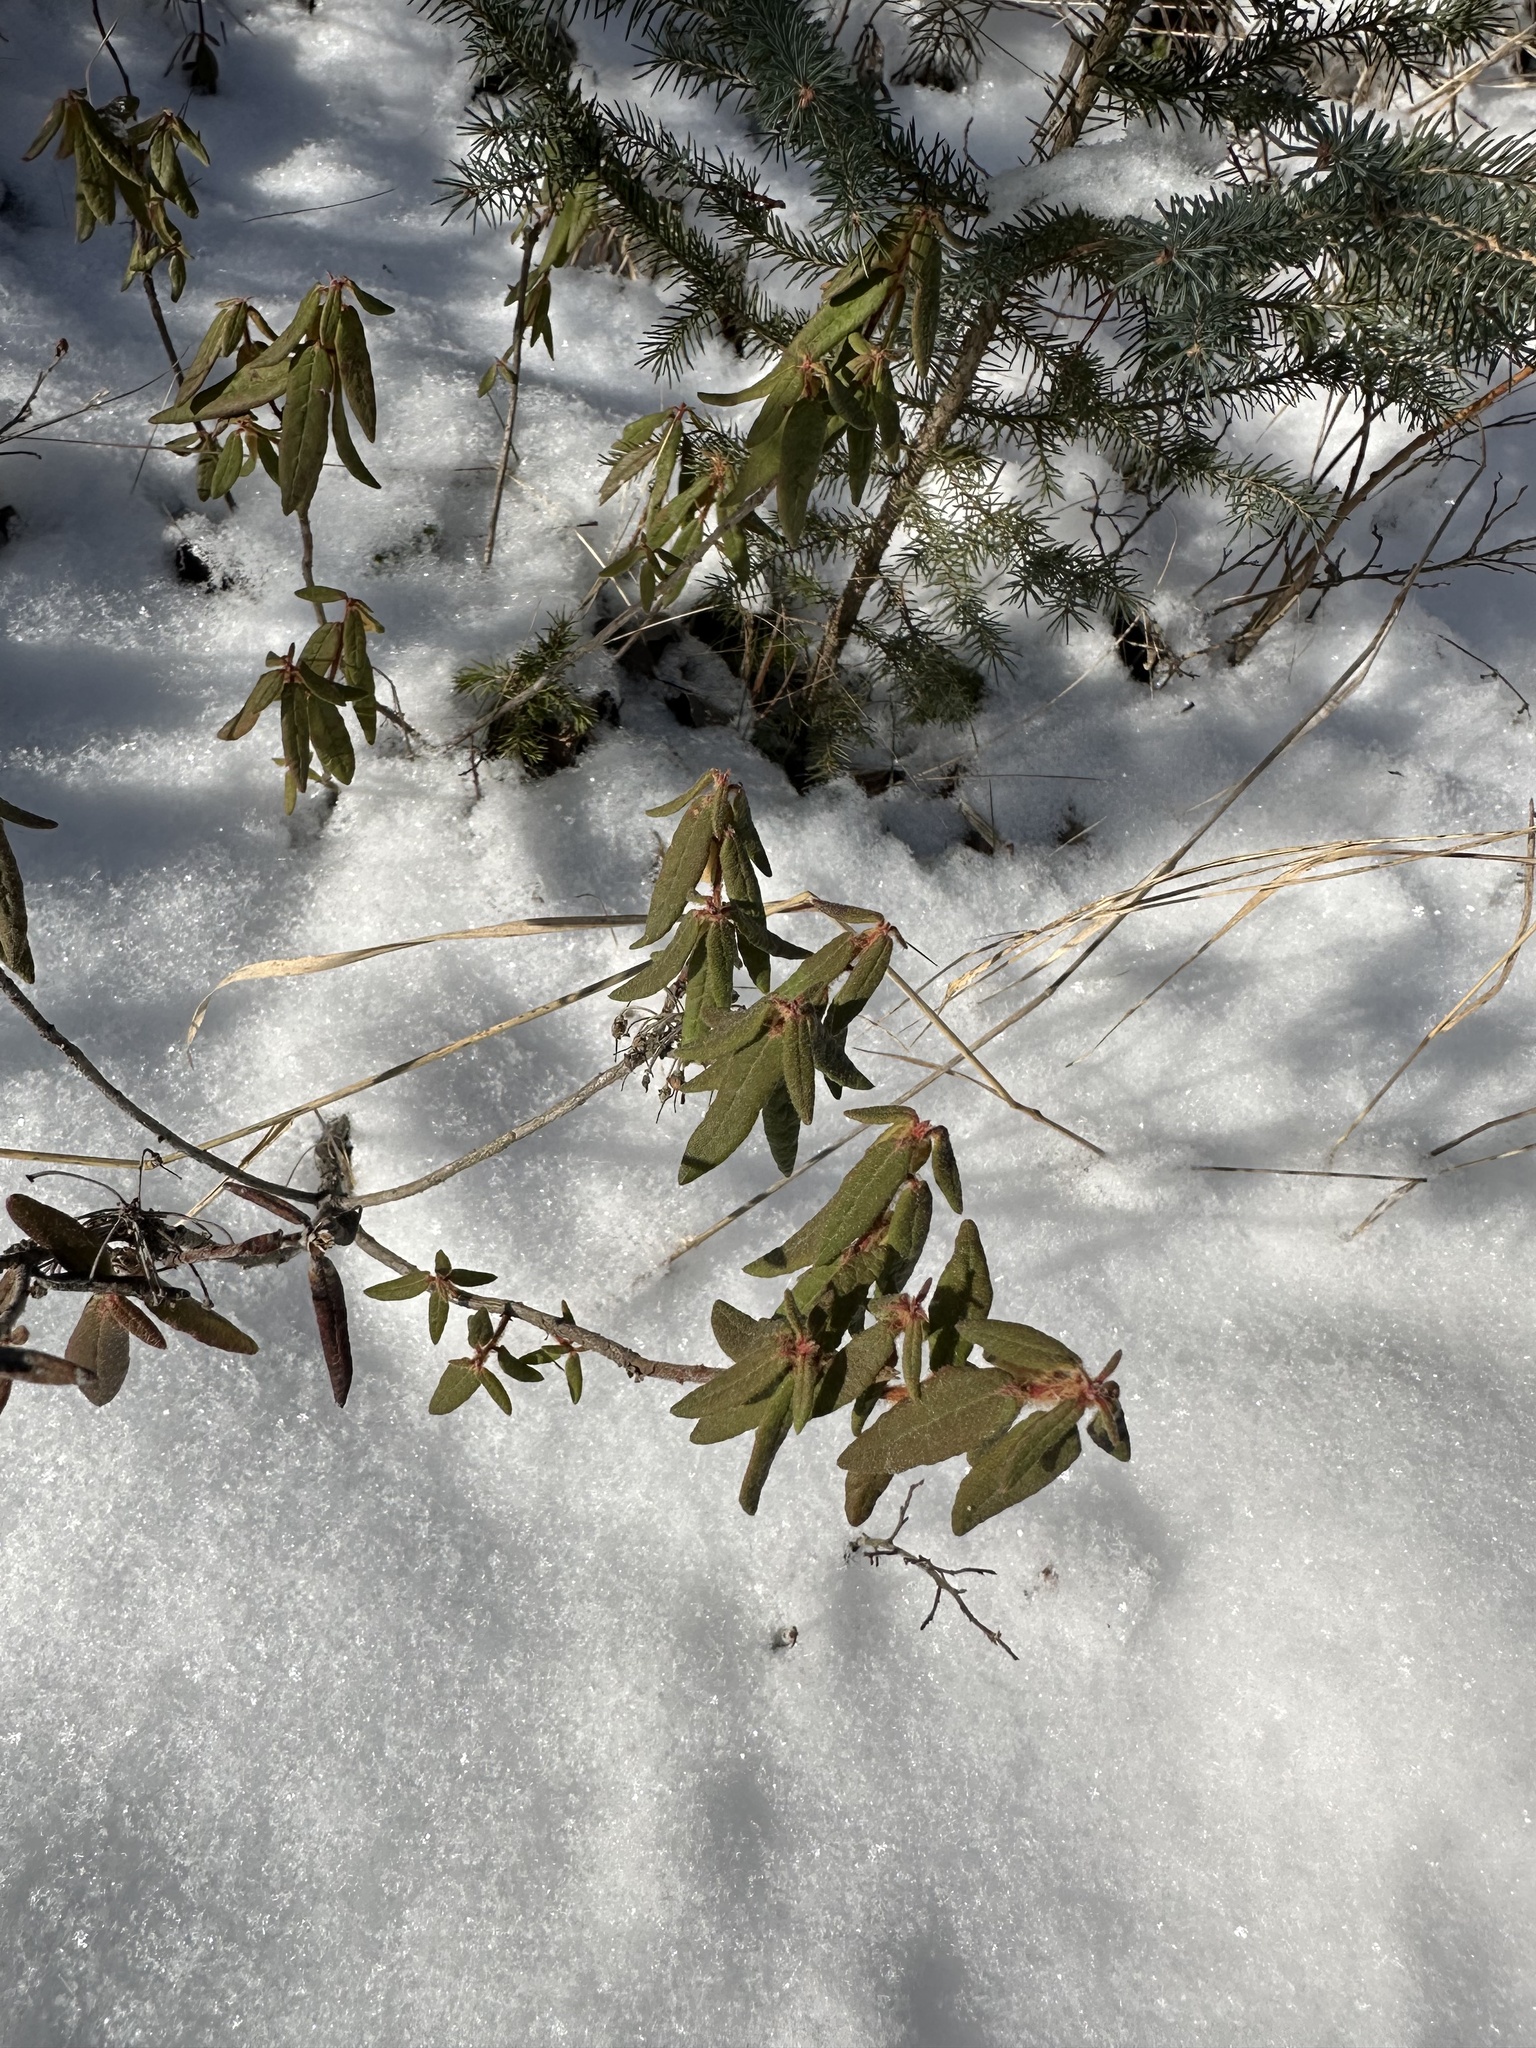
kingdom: Plantae
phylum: Tracheophyta
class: Magnoliopsida
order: Ericales
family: Ericaceae
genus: Rhododendron
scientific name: Rhododendron groenlandicum
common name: Bog labrador tea
